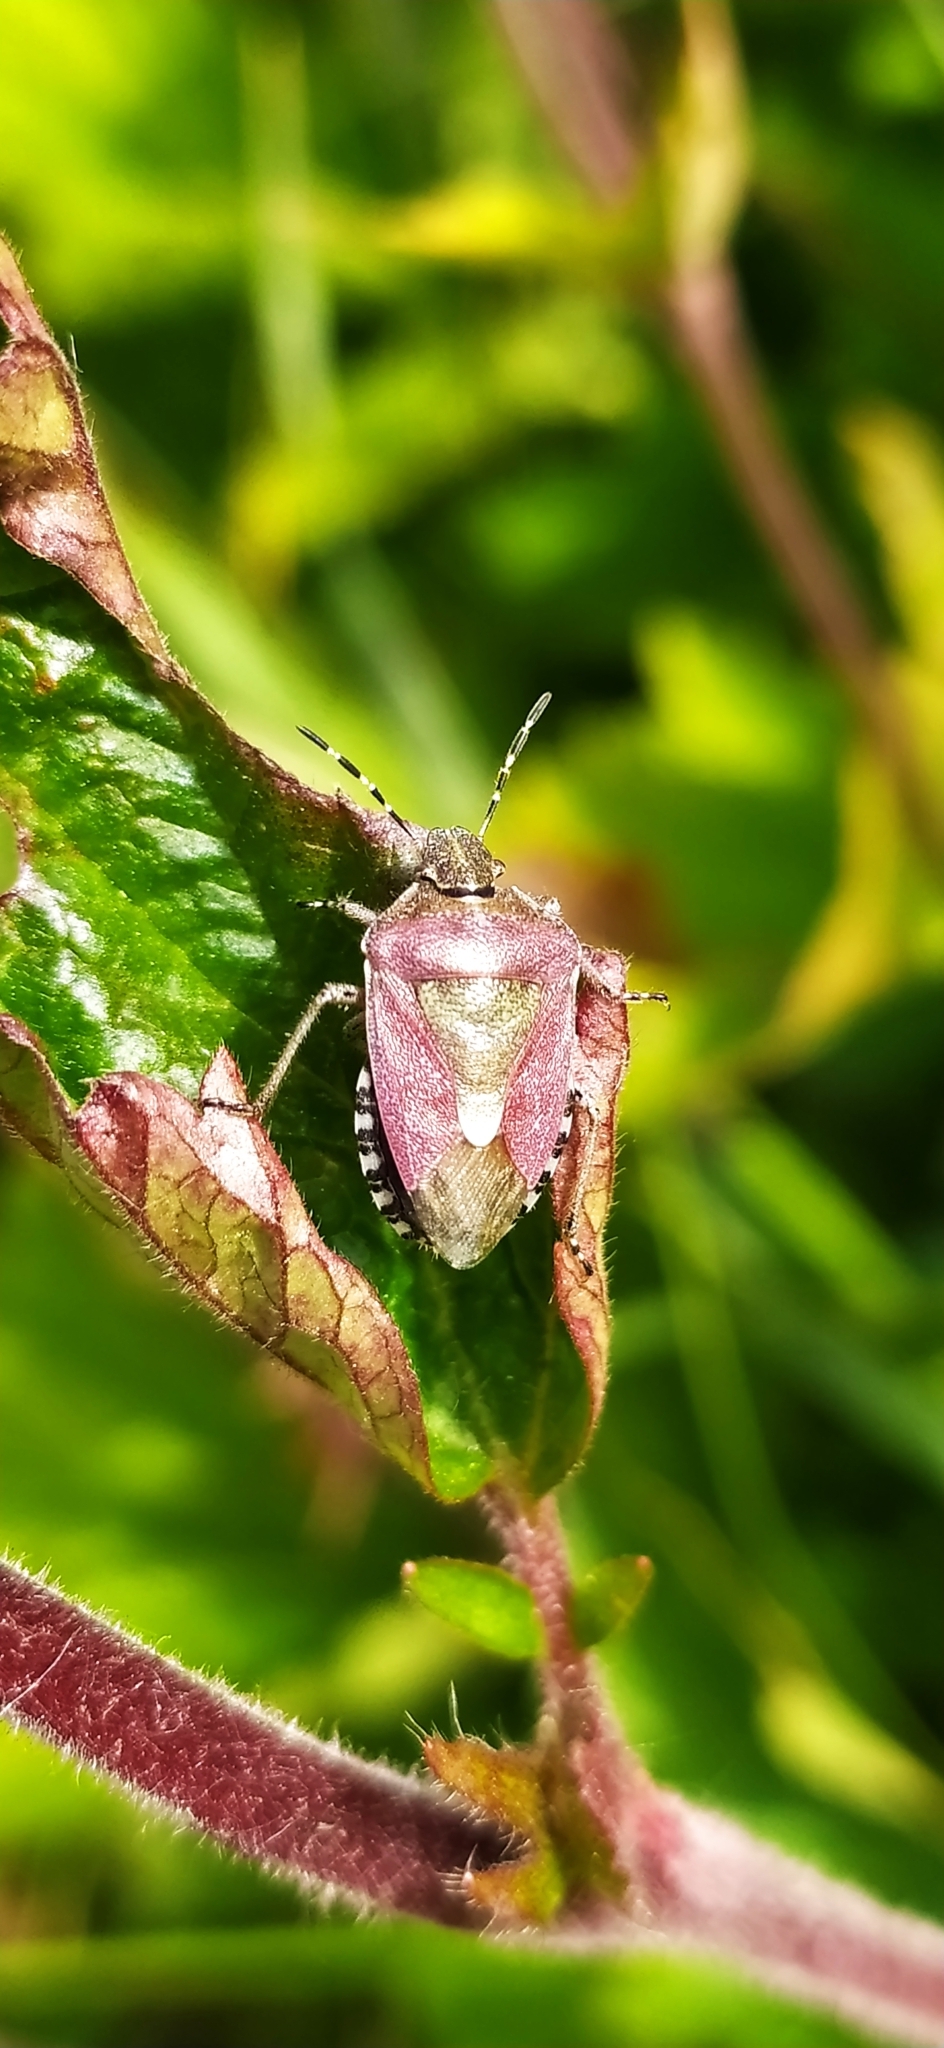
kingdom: Animalia
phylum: Arthropoda
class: Insecta
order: Hemiptera
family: Pentatomidae
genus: Dolycoris
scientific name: Dolycoris baccarum
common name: Sloe bug
